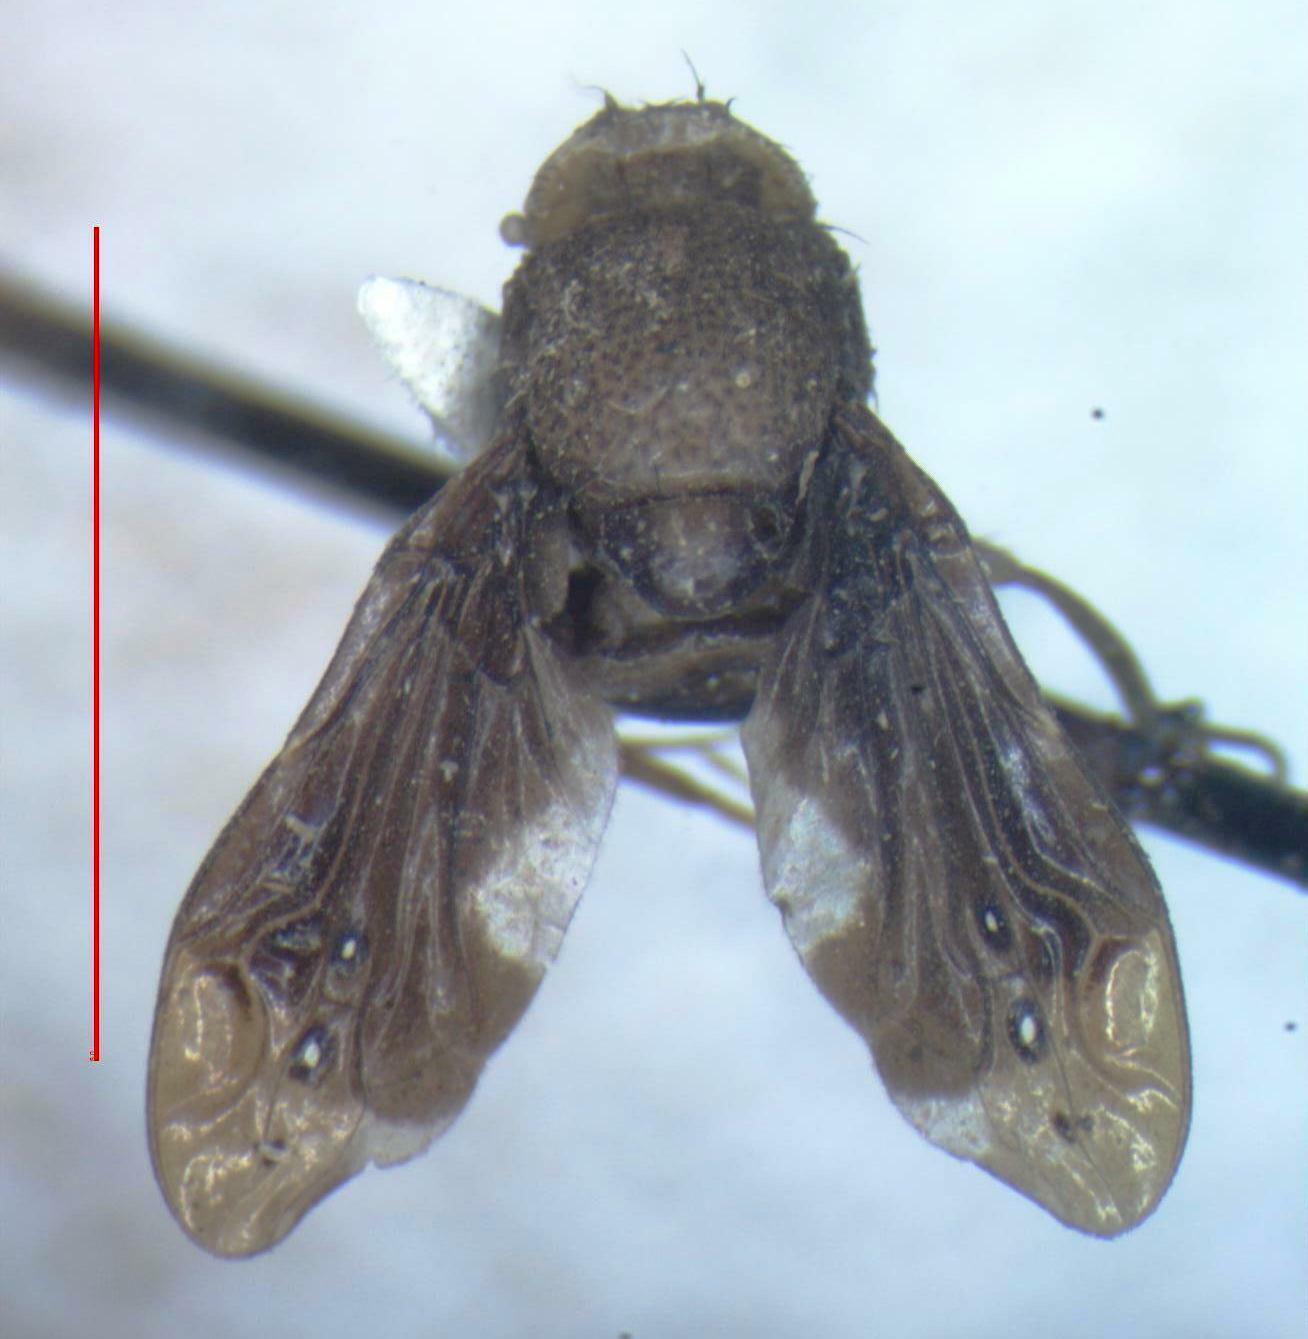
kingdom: Animalia
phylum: Arthropoda
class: Insecta
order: Diptera
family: Ulidiidae
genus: Pseudopterocalla
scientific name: Pseudopterocalla scutellata
